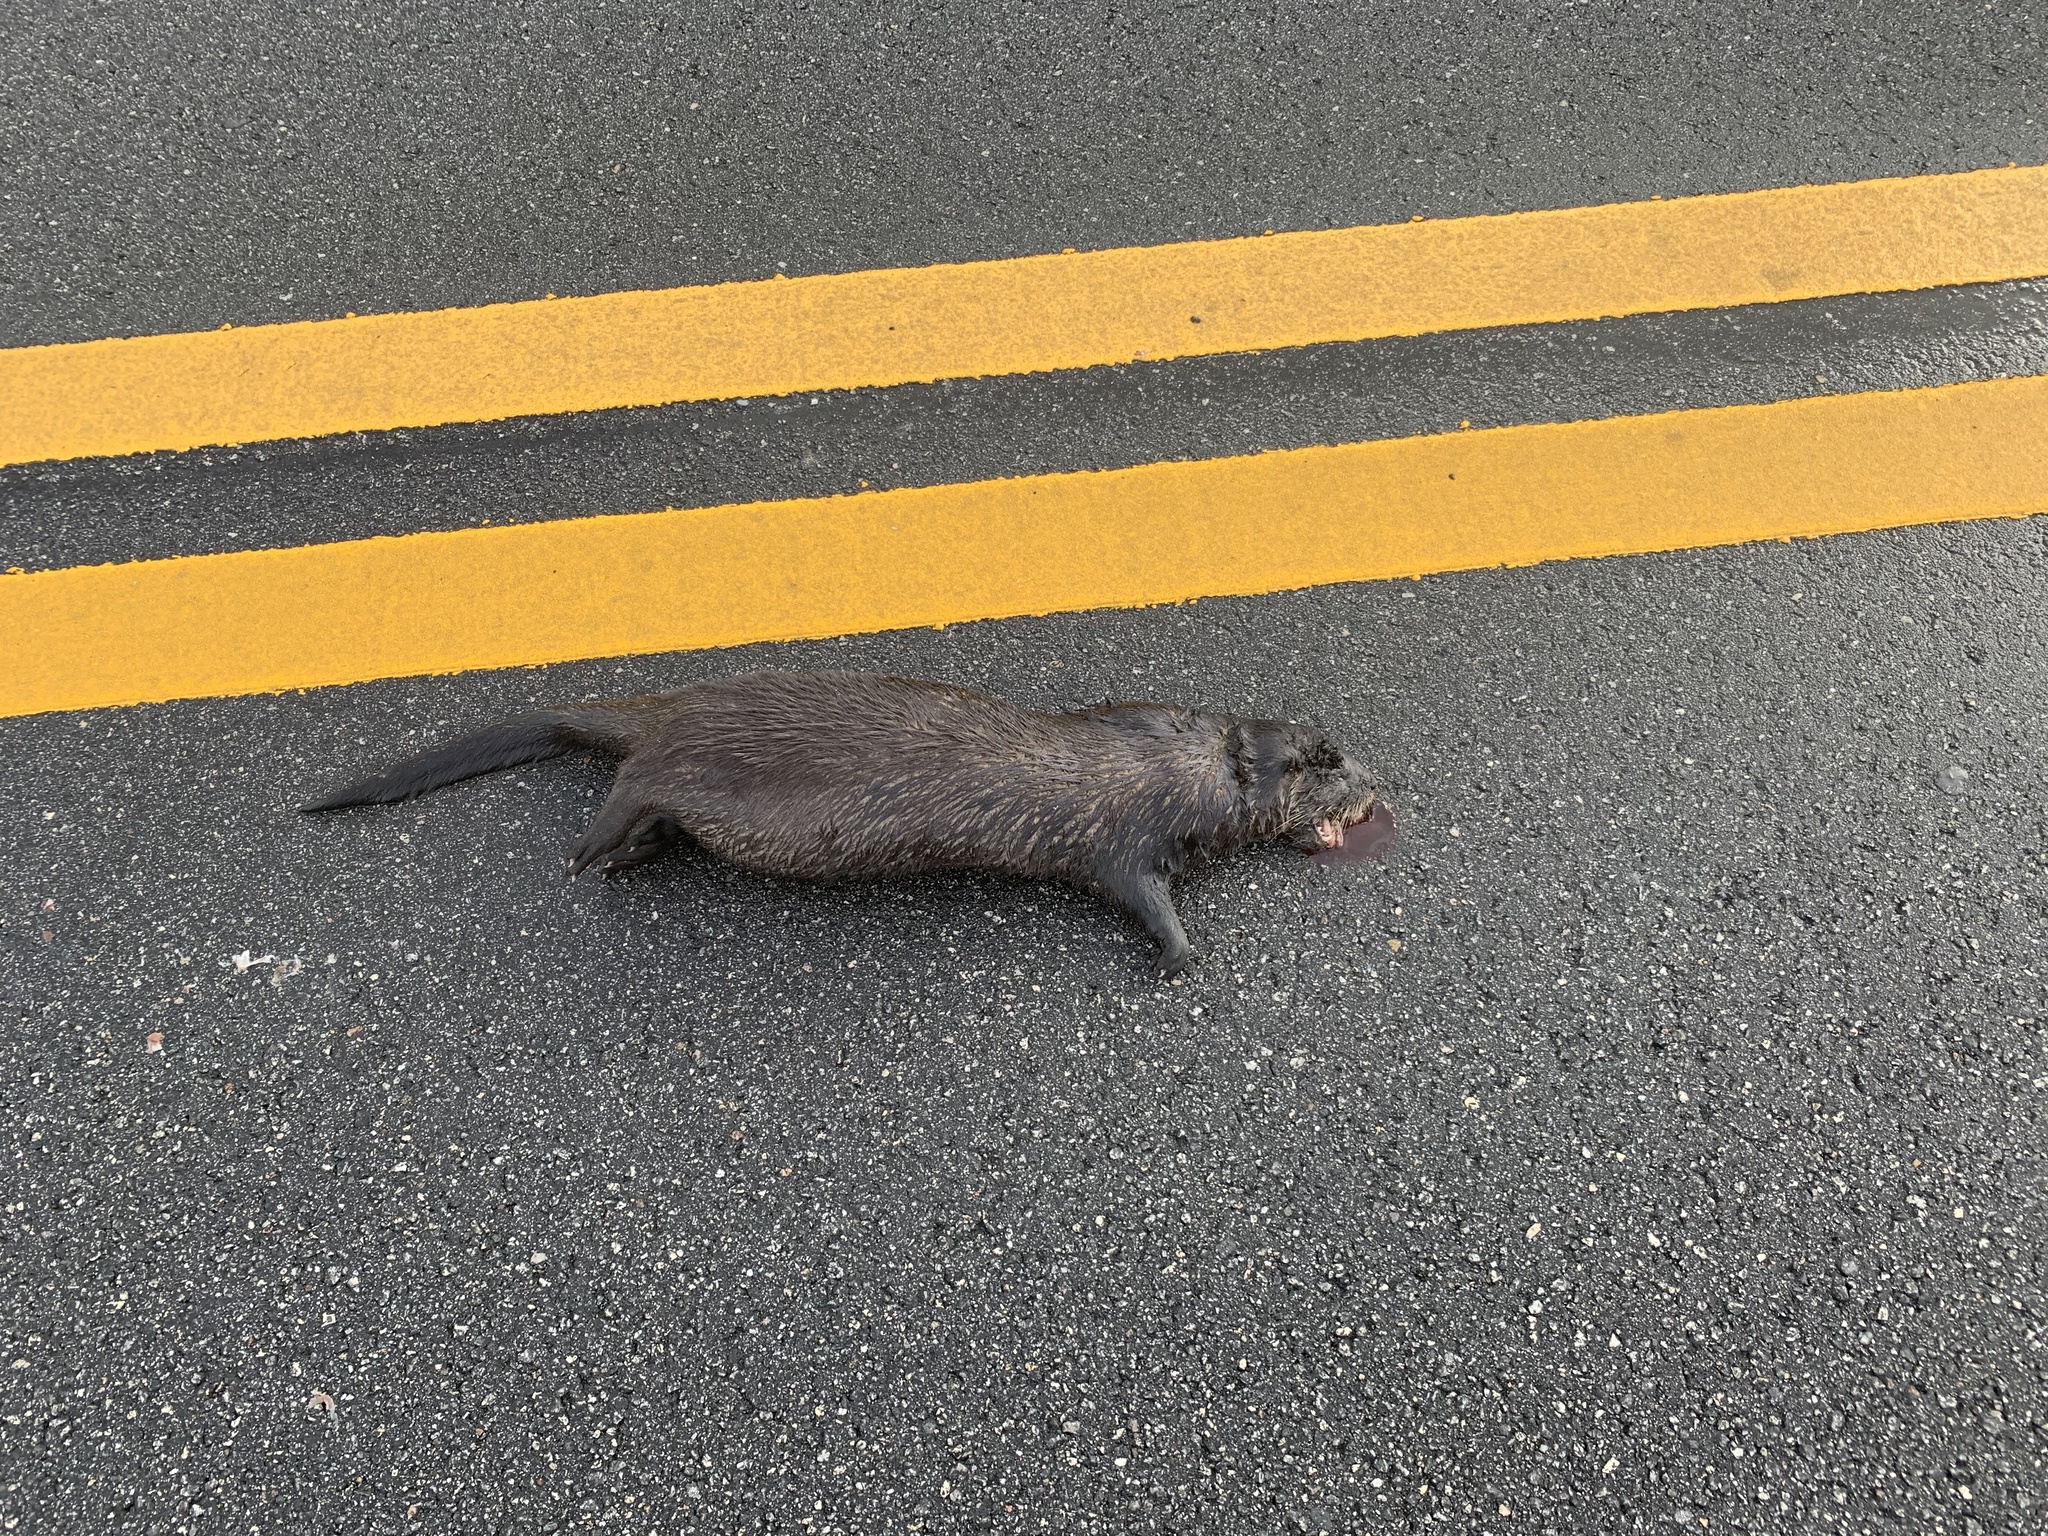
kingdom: Animalia
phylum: Chordata
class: Mammalia
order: Carnivora
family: Mustelidae
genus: Lontra
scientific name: Lontra canadensis
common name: North american river otter
